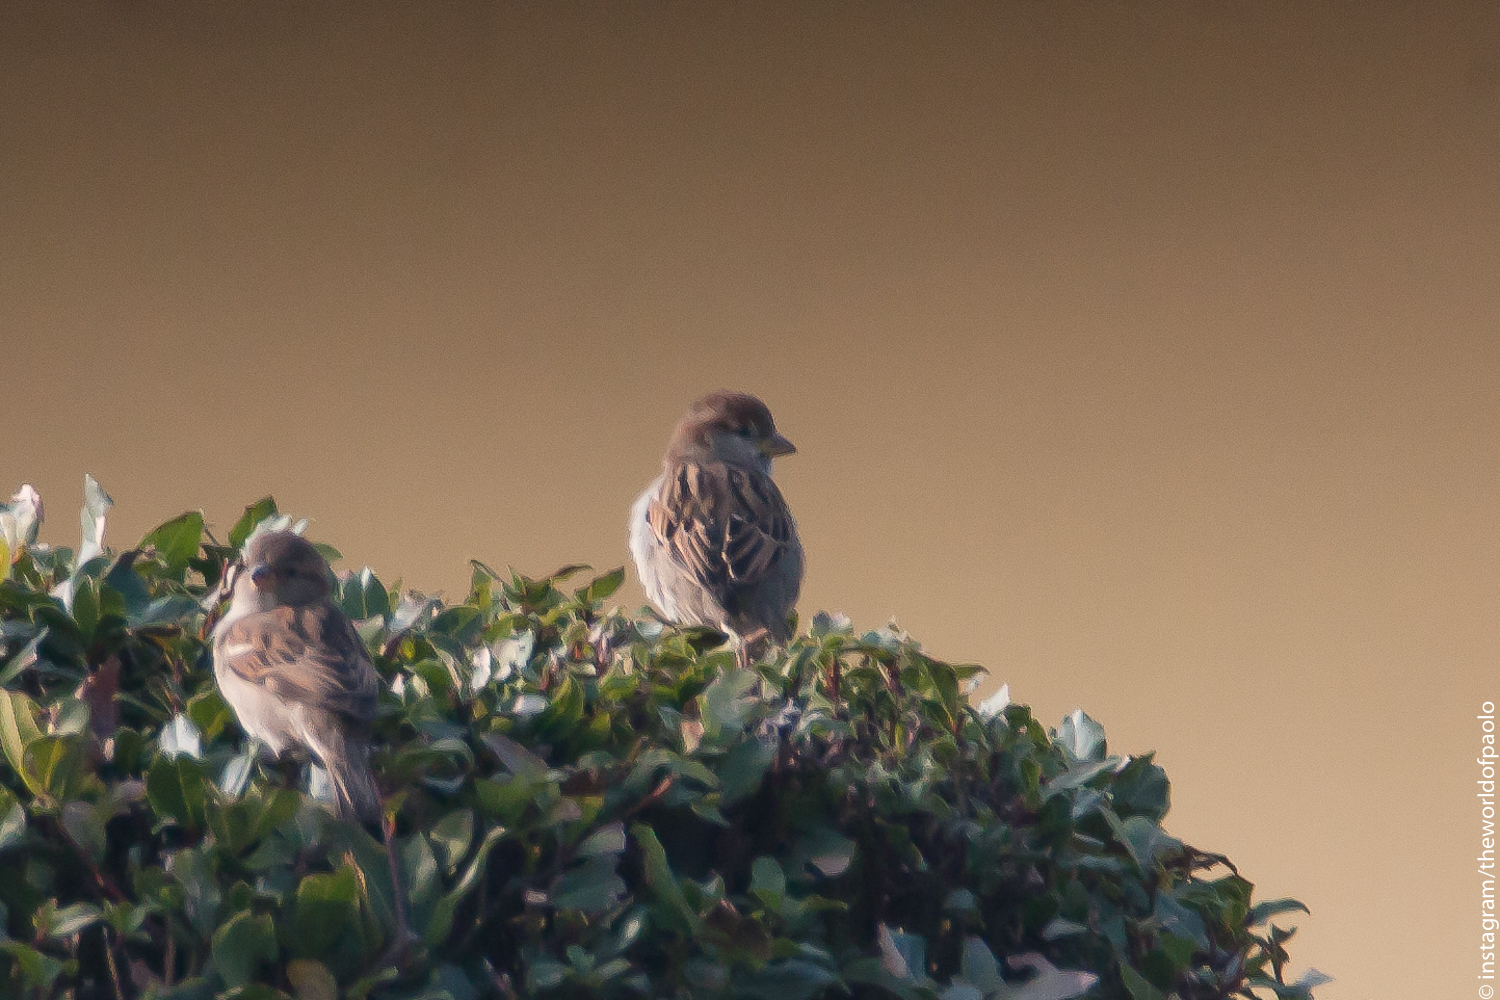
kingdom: Animalia
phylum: Chordata
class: Aves
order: Passeriformes
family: Passeridae
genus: Passer
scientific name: Passer italiae
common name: Italian sparrow
